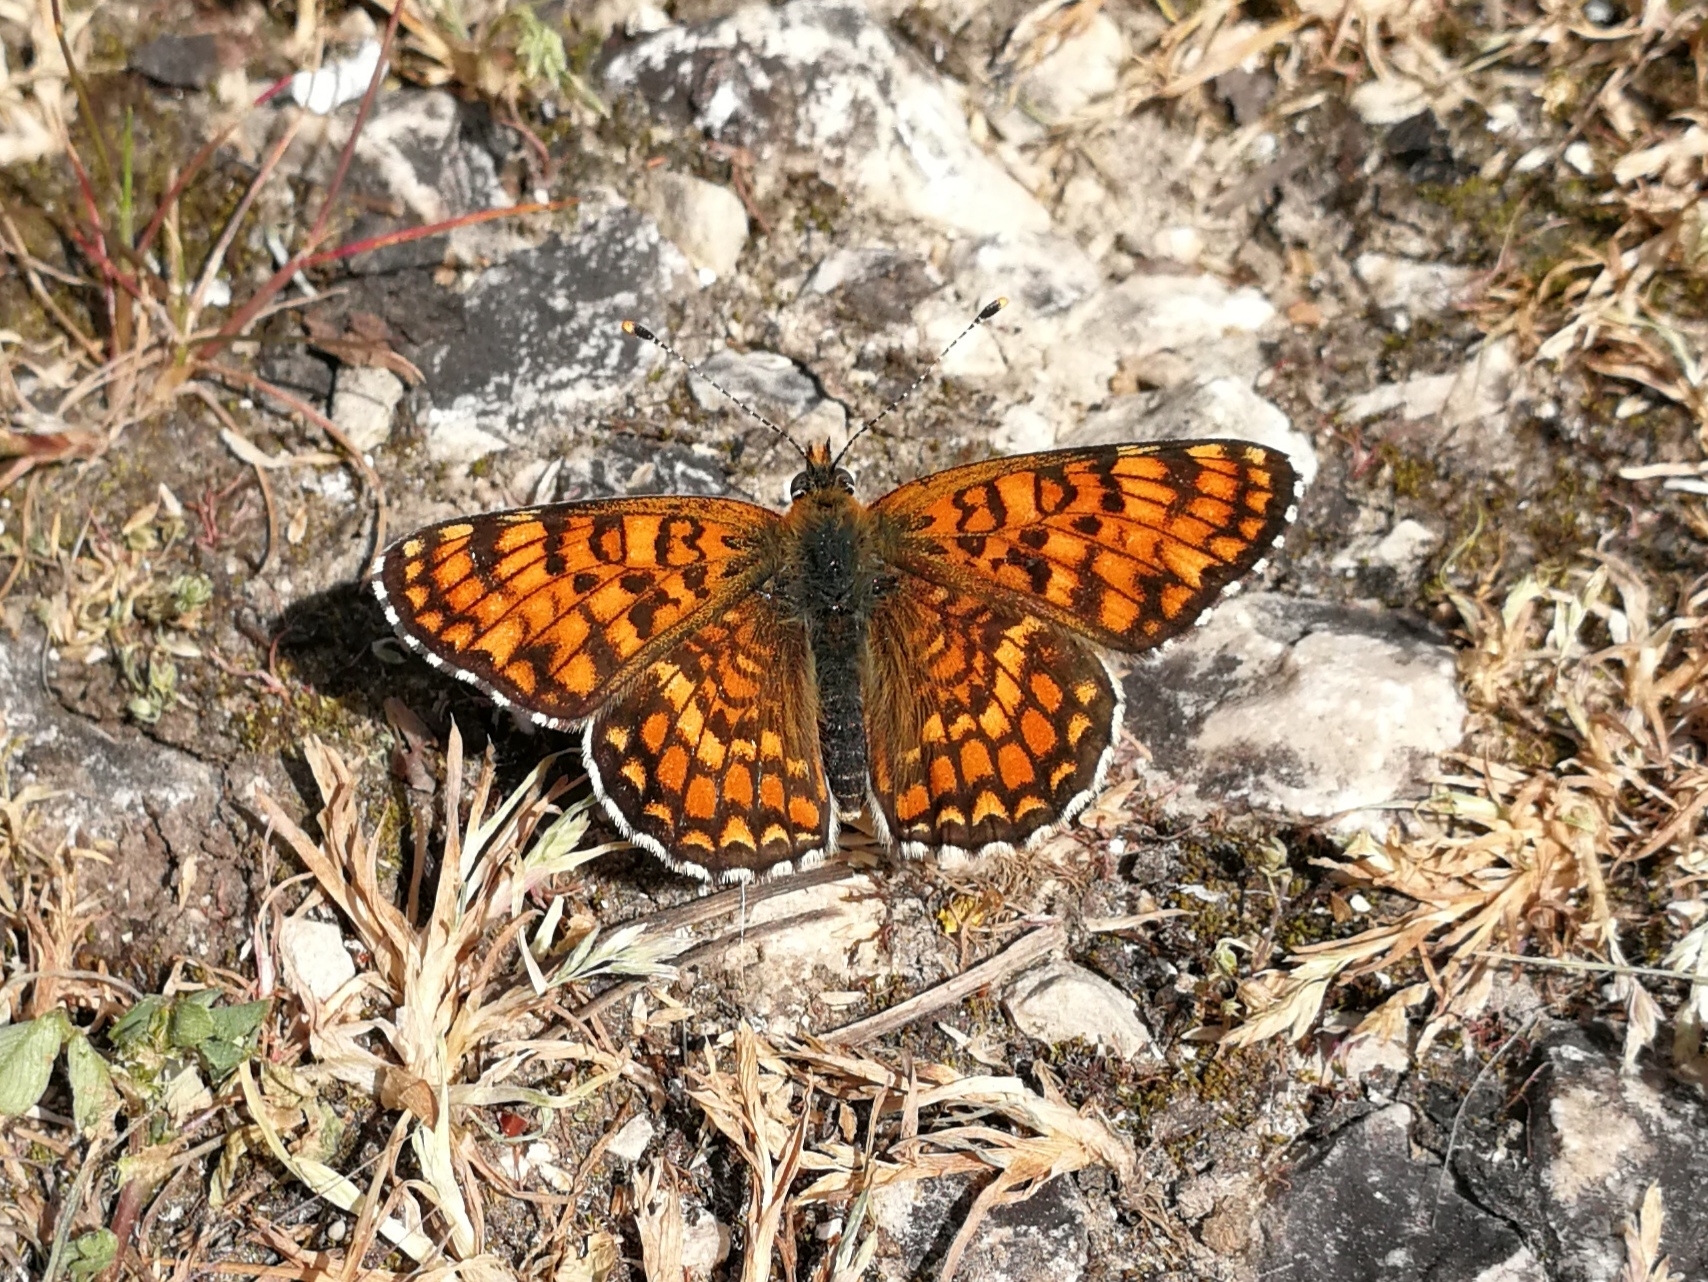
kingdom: Animalia
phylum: Arthropoda
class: Insecta
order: Lepidoptera
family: Nymphalidae
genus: Melitaea
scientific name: Melitaea pseudornata
